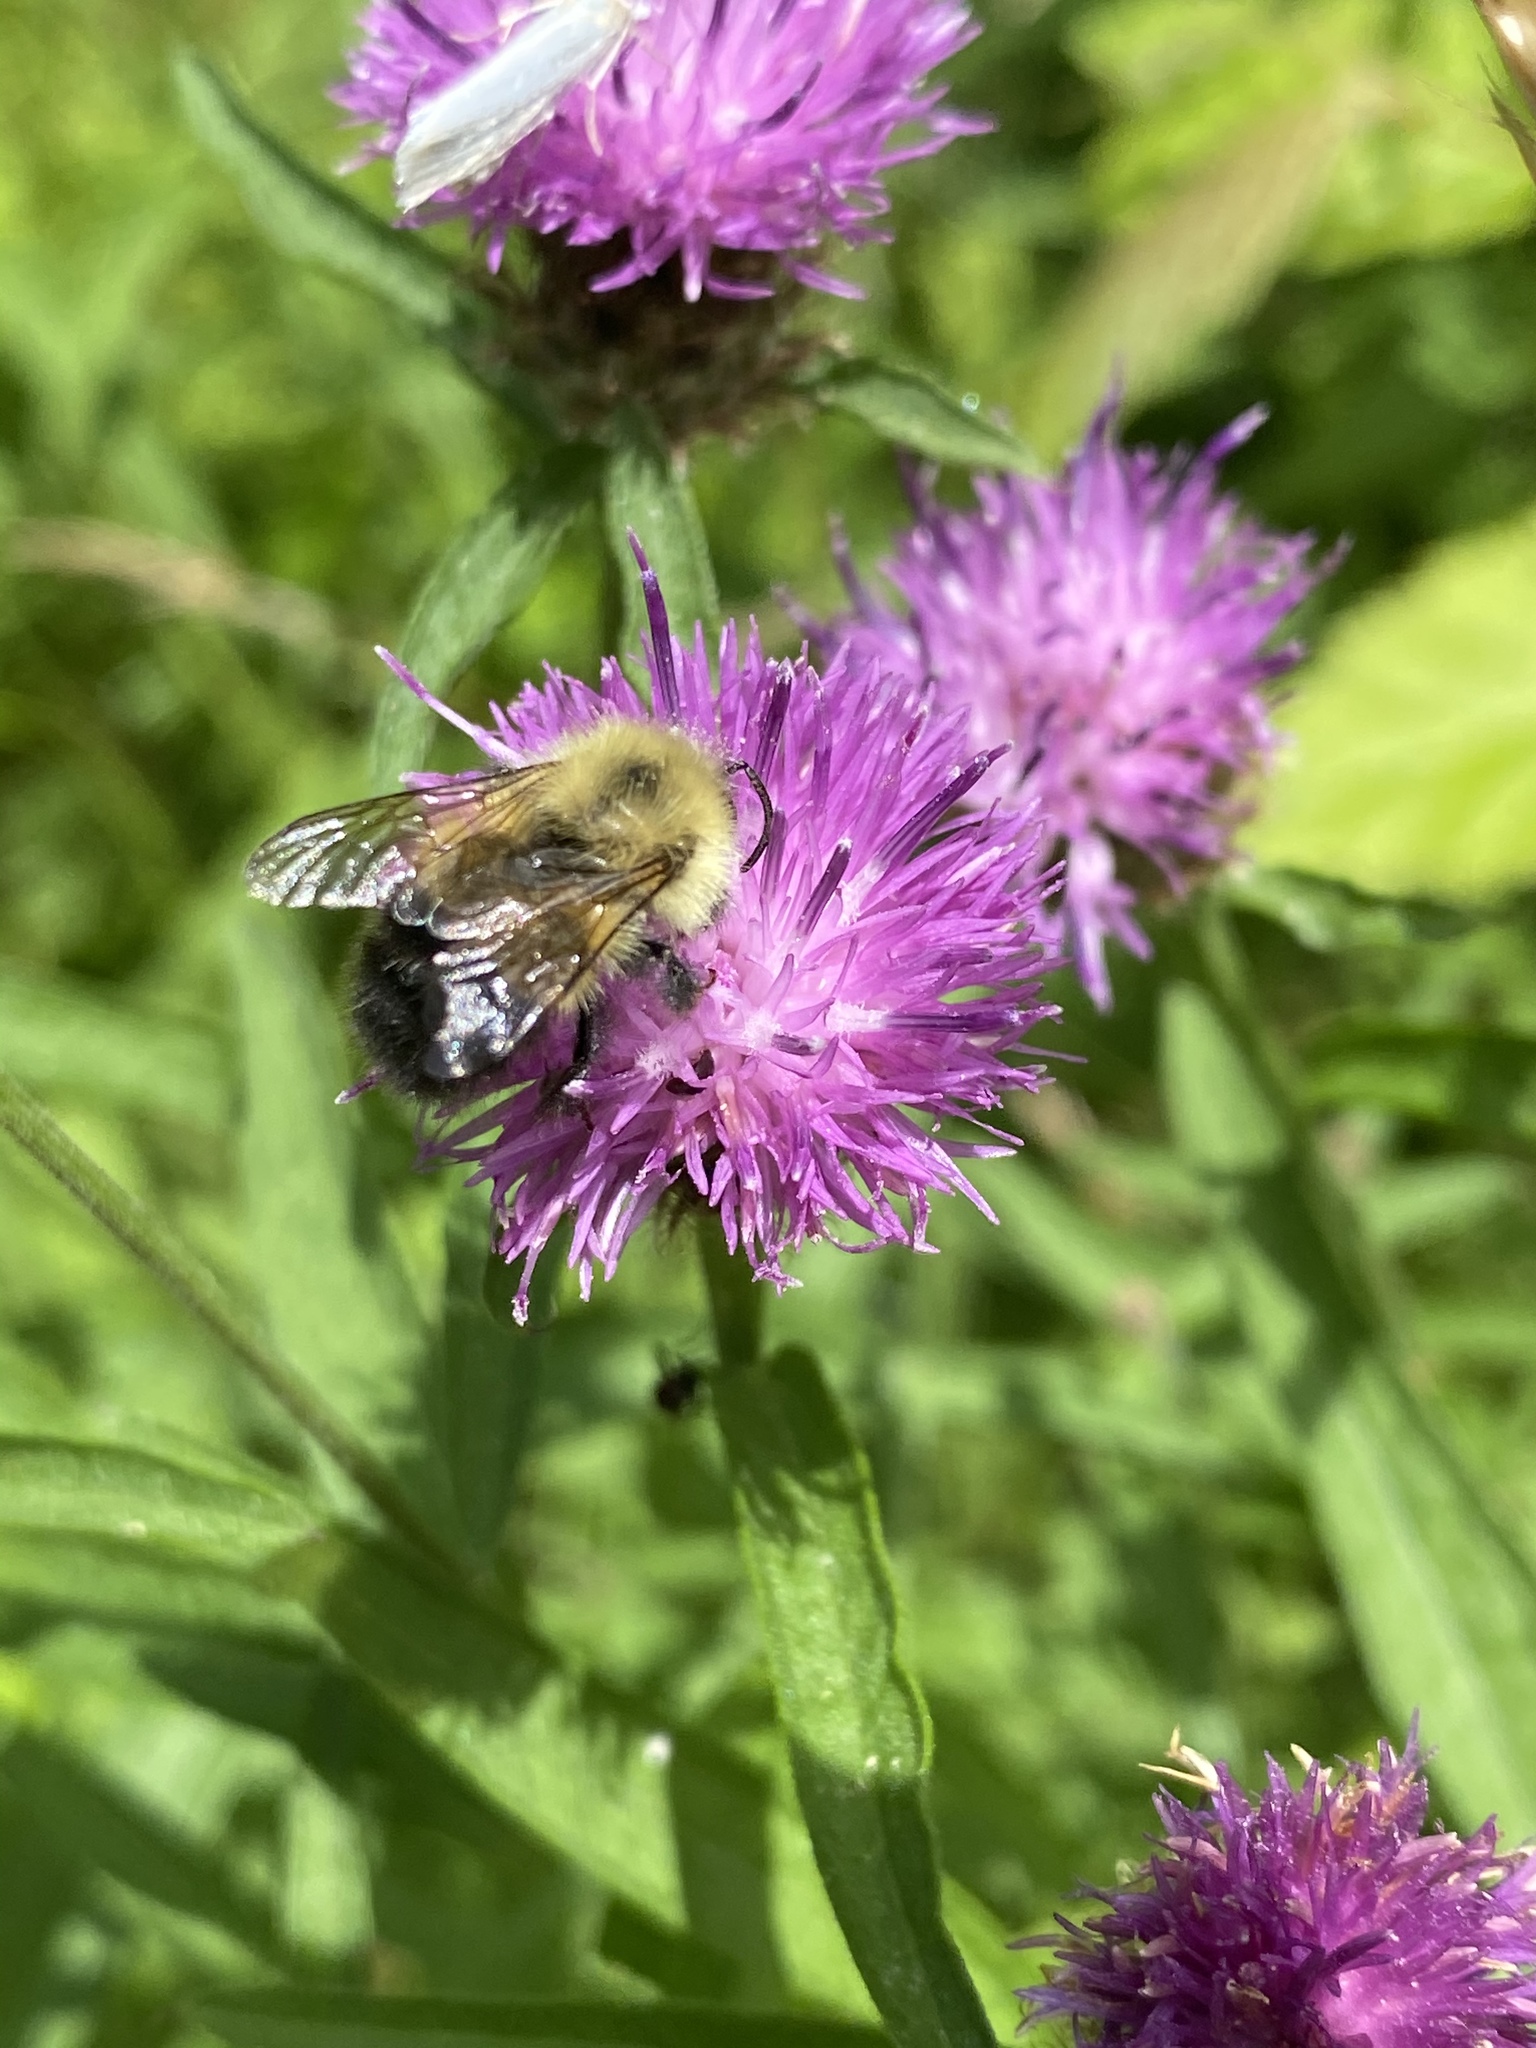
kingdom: Animalia
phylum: Arthropoda
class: Insecta
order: Hymenoptera
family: Apidae
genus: Pyrobombus
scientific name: Pyrobombus
